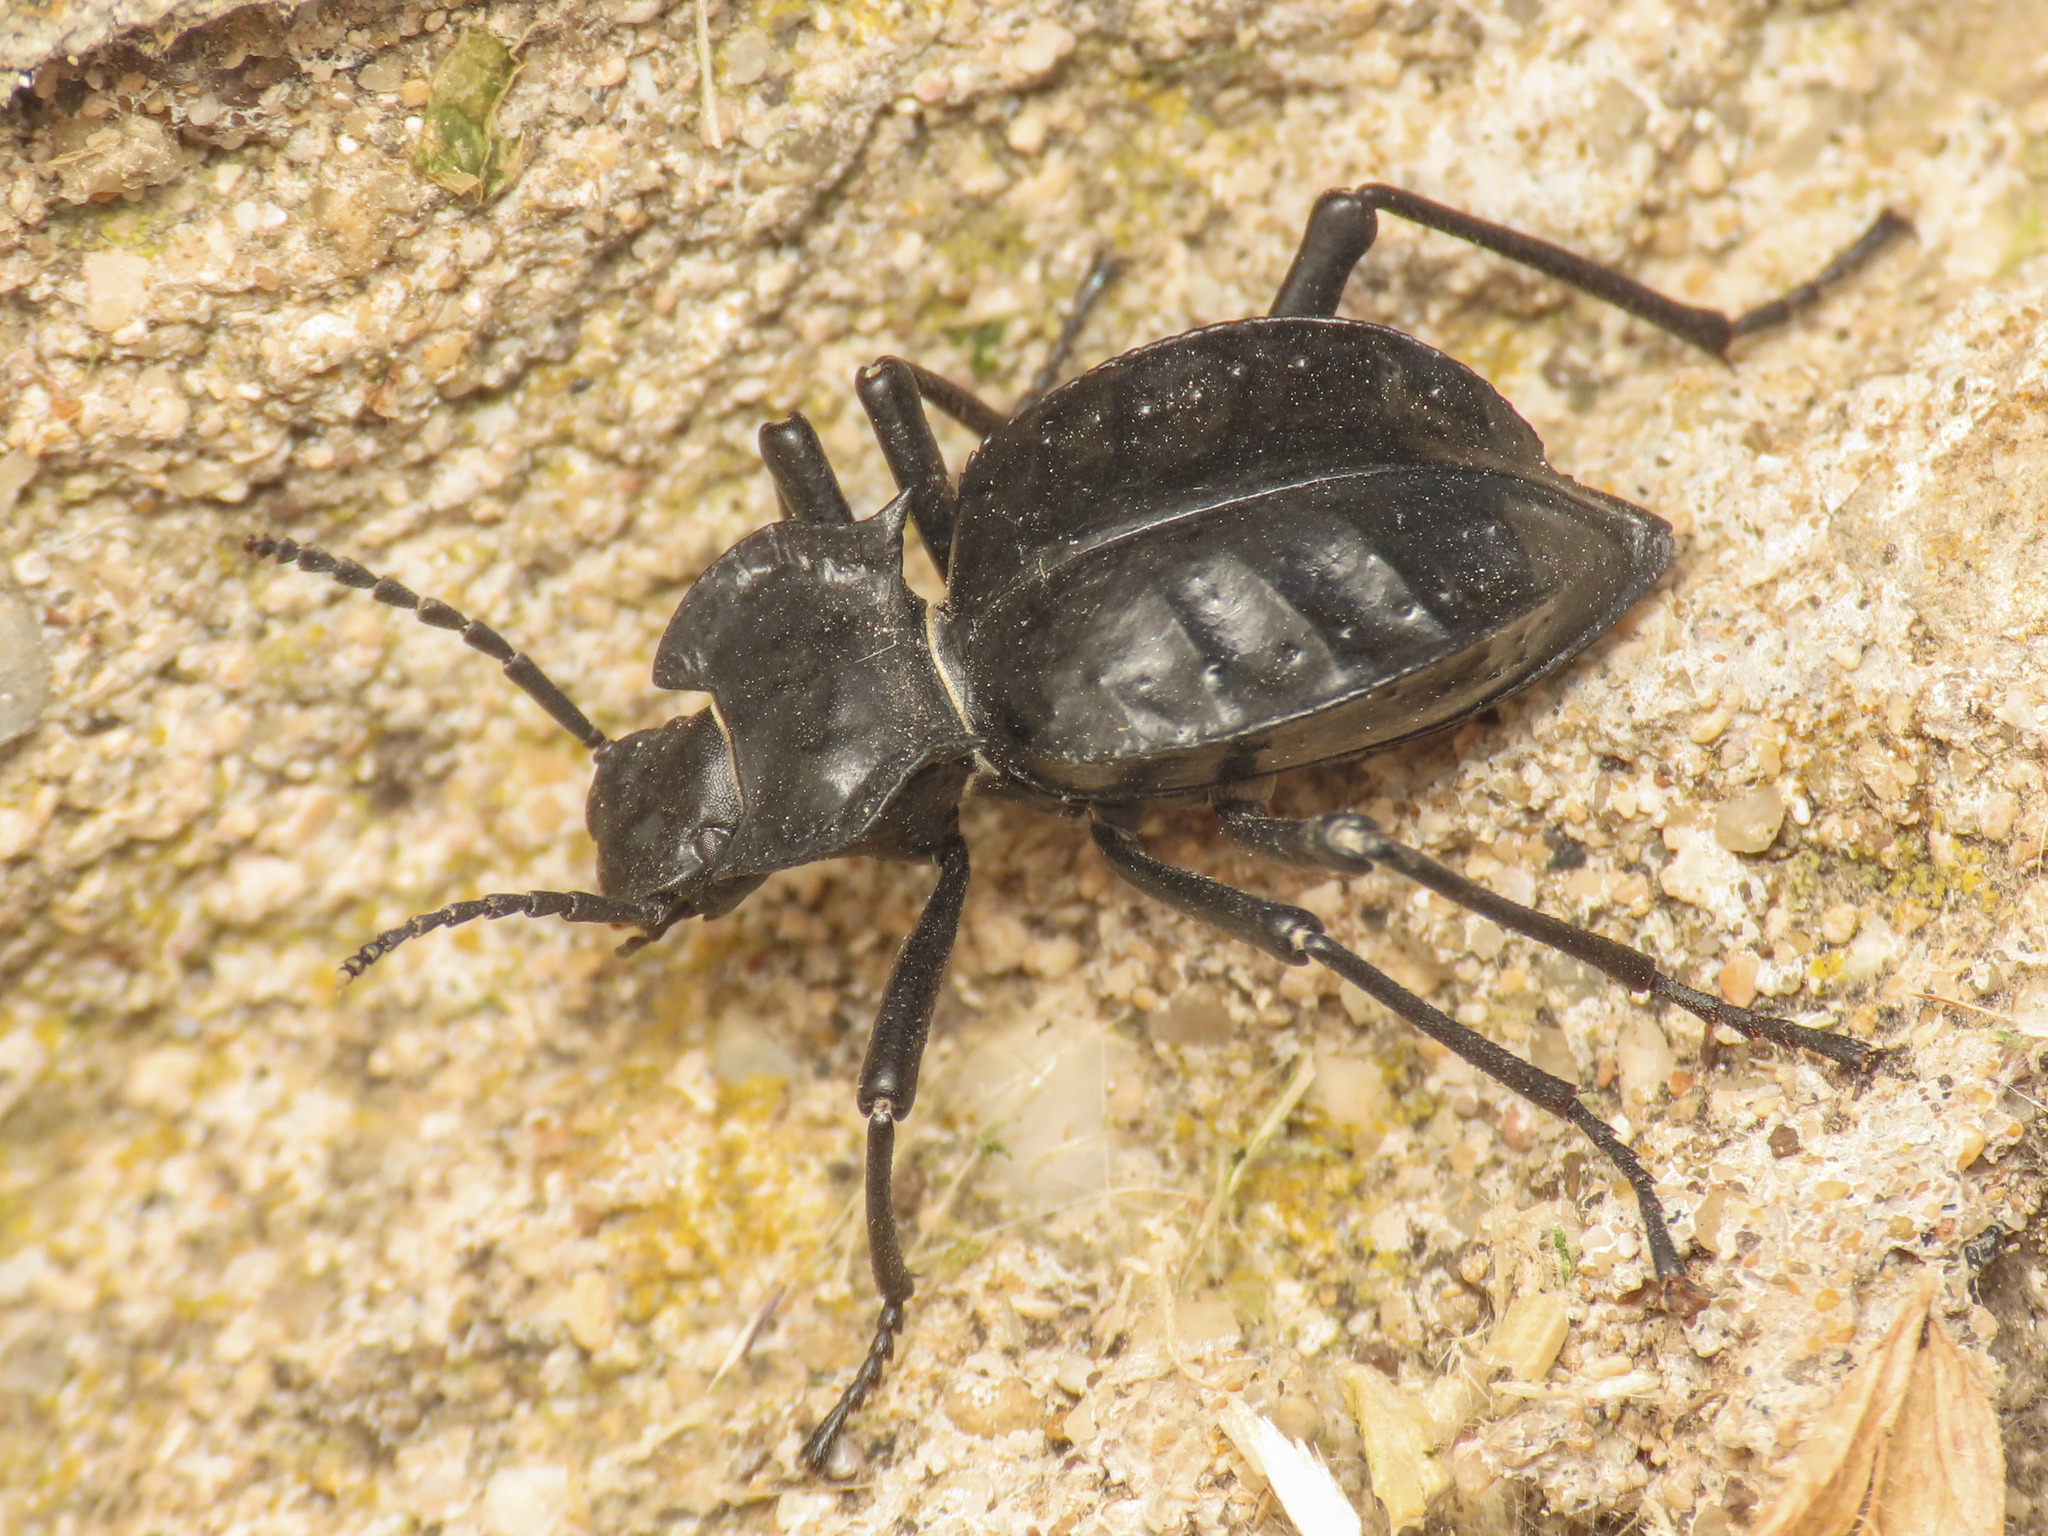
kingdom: Animalia
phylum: Arthropoda
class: Insecta
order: Coleoptera
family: Tenebrionidae
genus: Akis
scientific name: Akis bacarozzo
